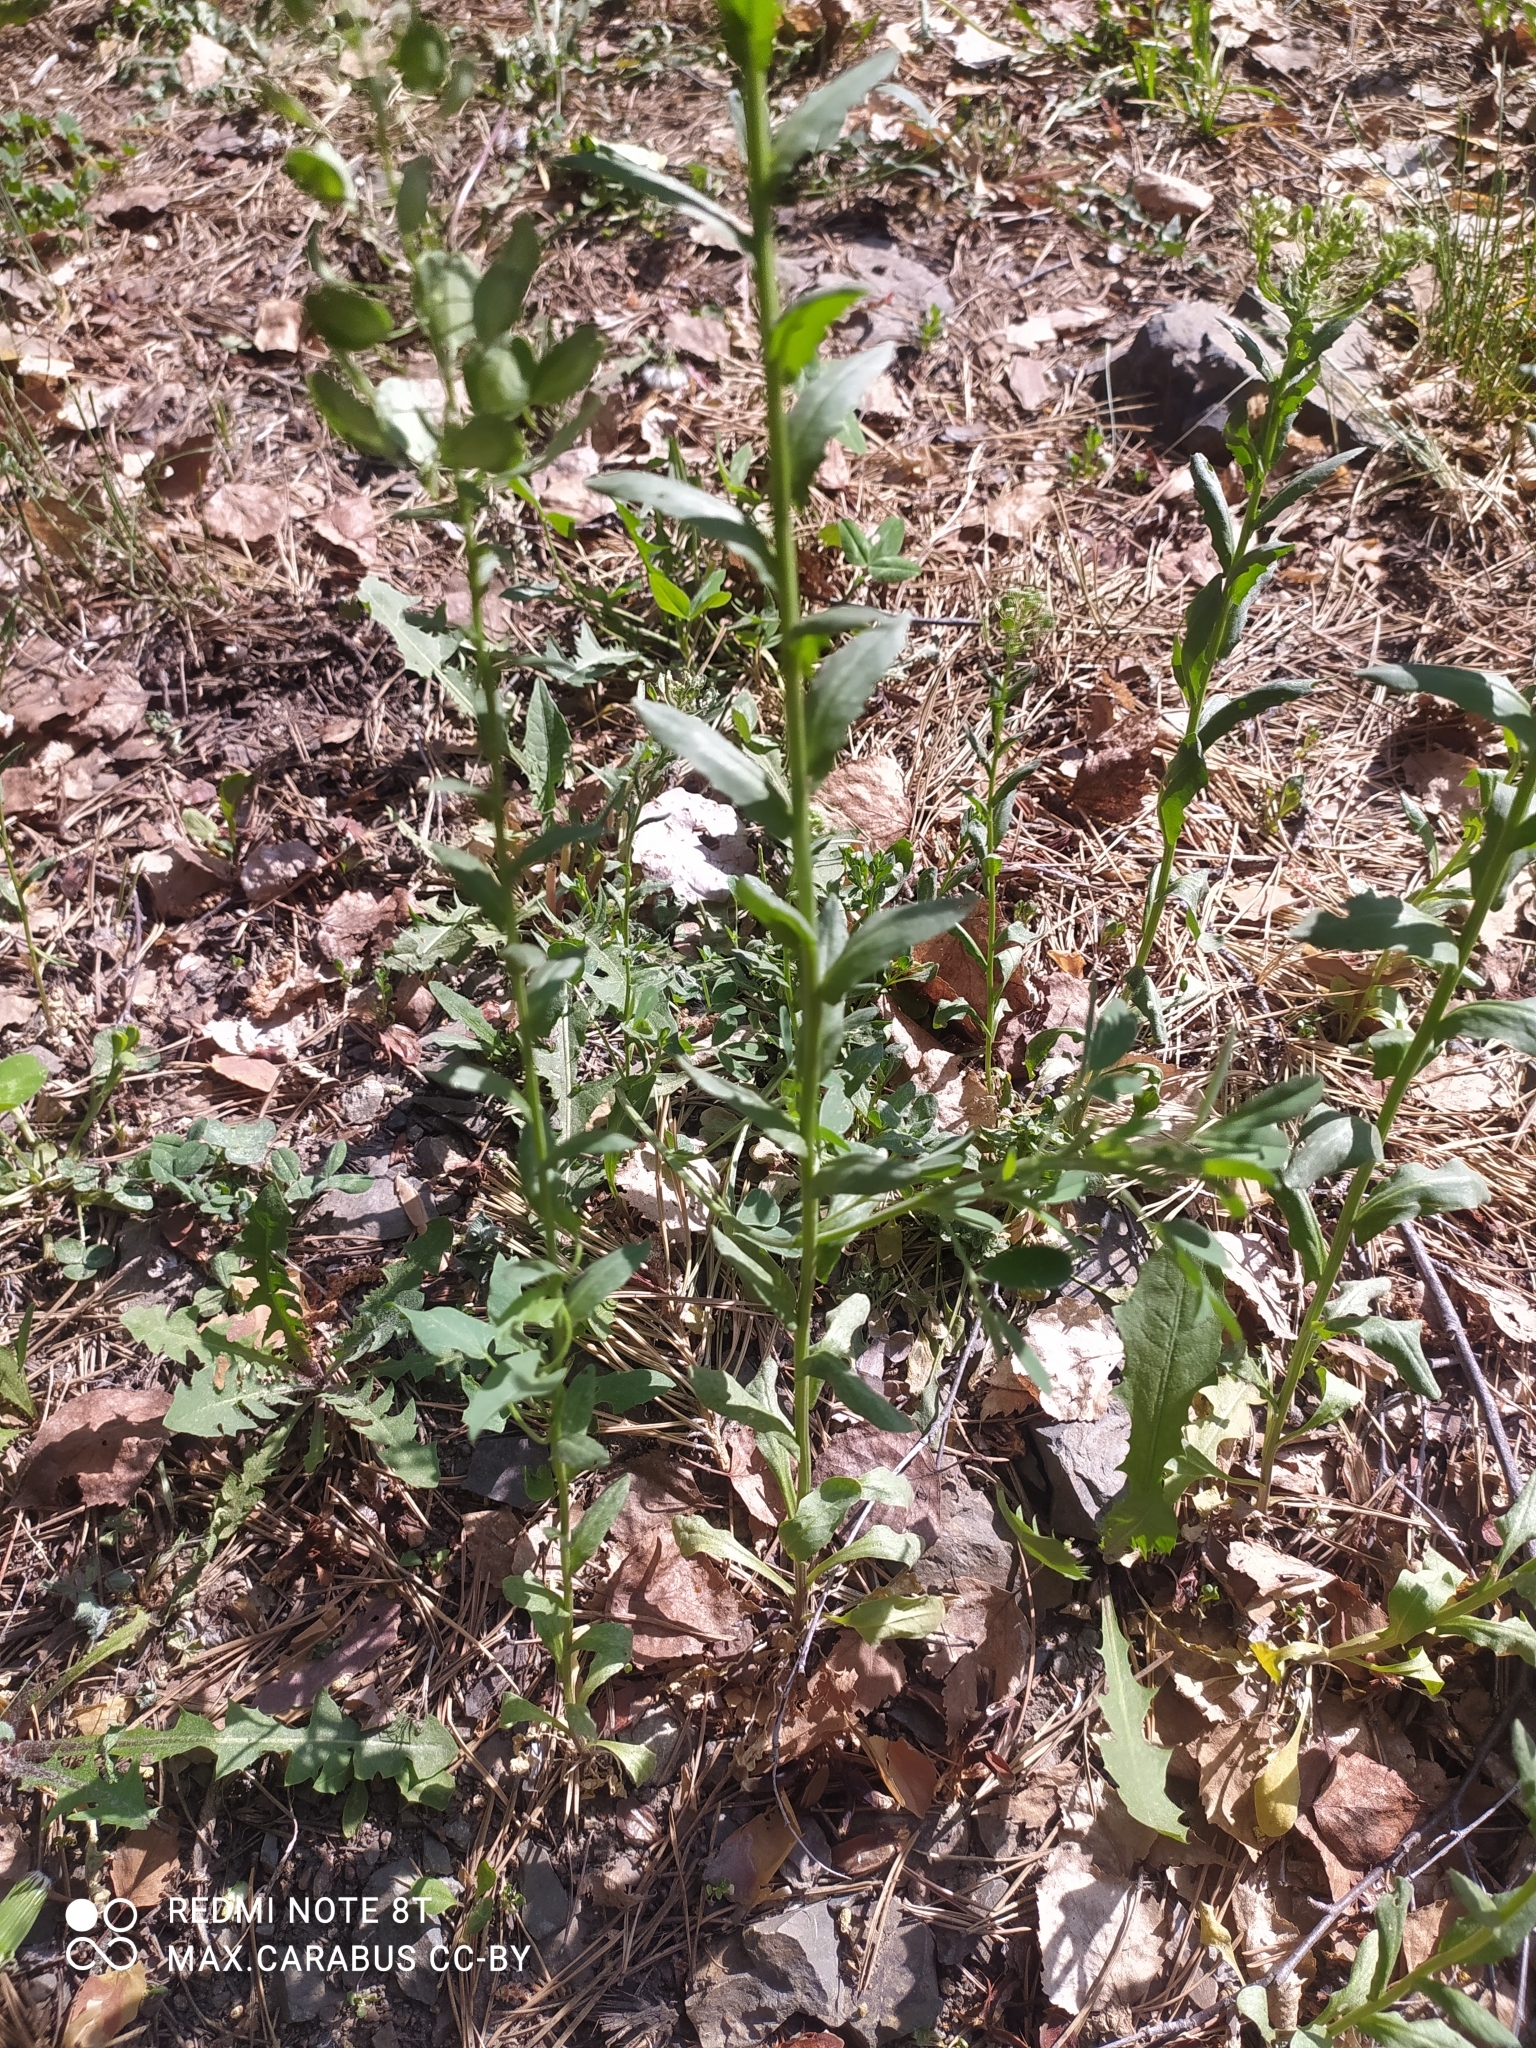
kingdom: Plantae
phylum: Tracheophyta
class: Magnoliopsida
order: Brassicales
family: Brassicaceae
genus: Thlaspi
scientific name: Thlaspi arvense
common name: Field pennycress
